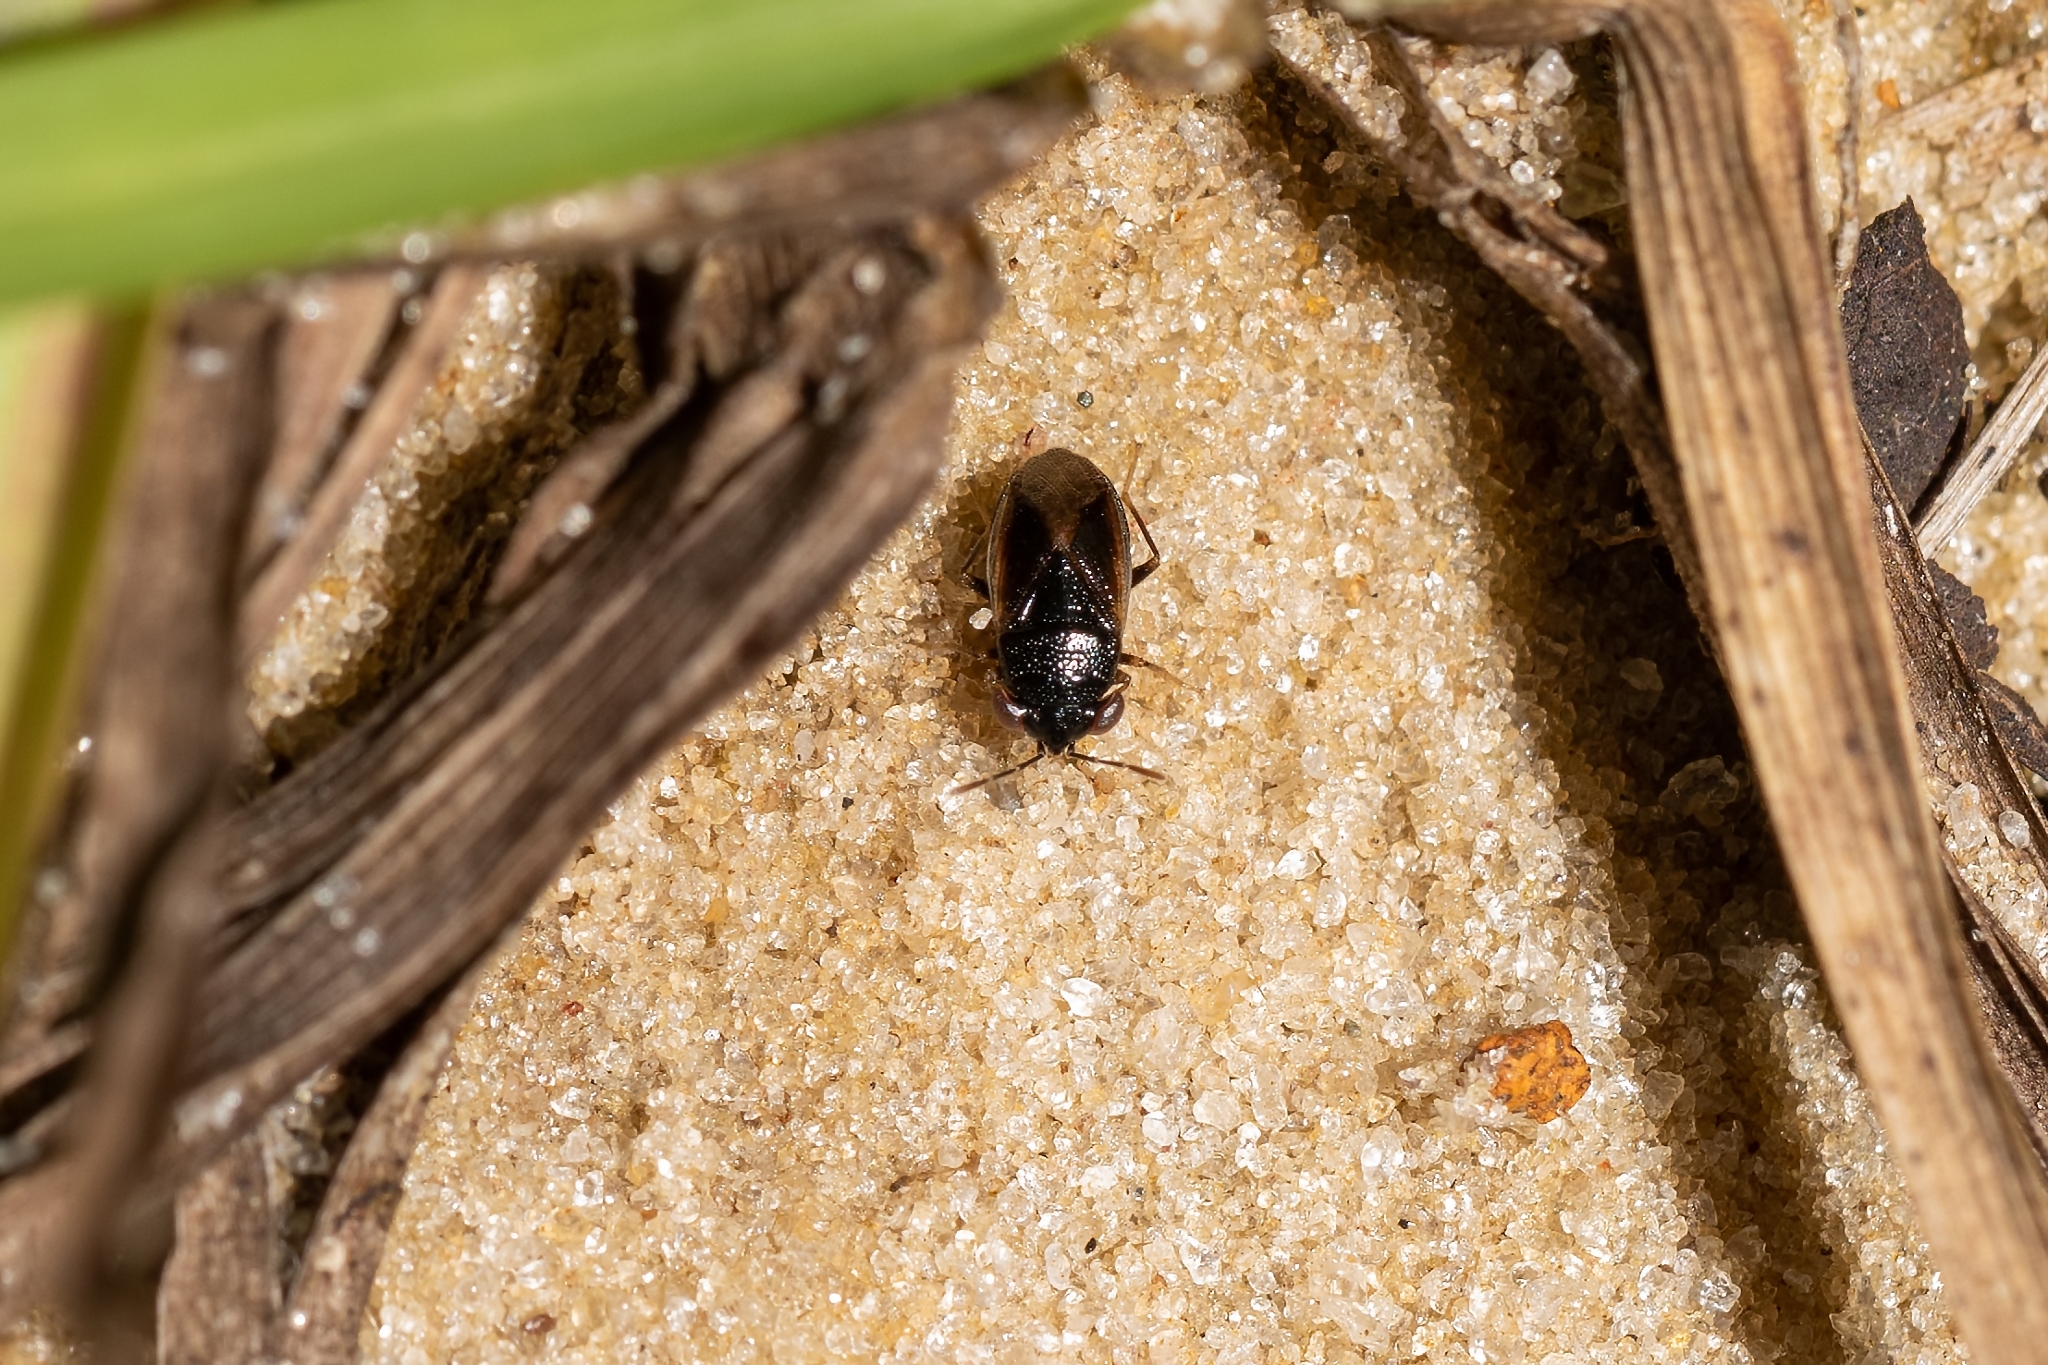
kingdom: Animalia
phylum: Arthropoda
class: Insecta
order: Hemiptera
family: Geocoridae
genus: Geocoris
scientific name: Geocoris uliginosus
